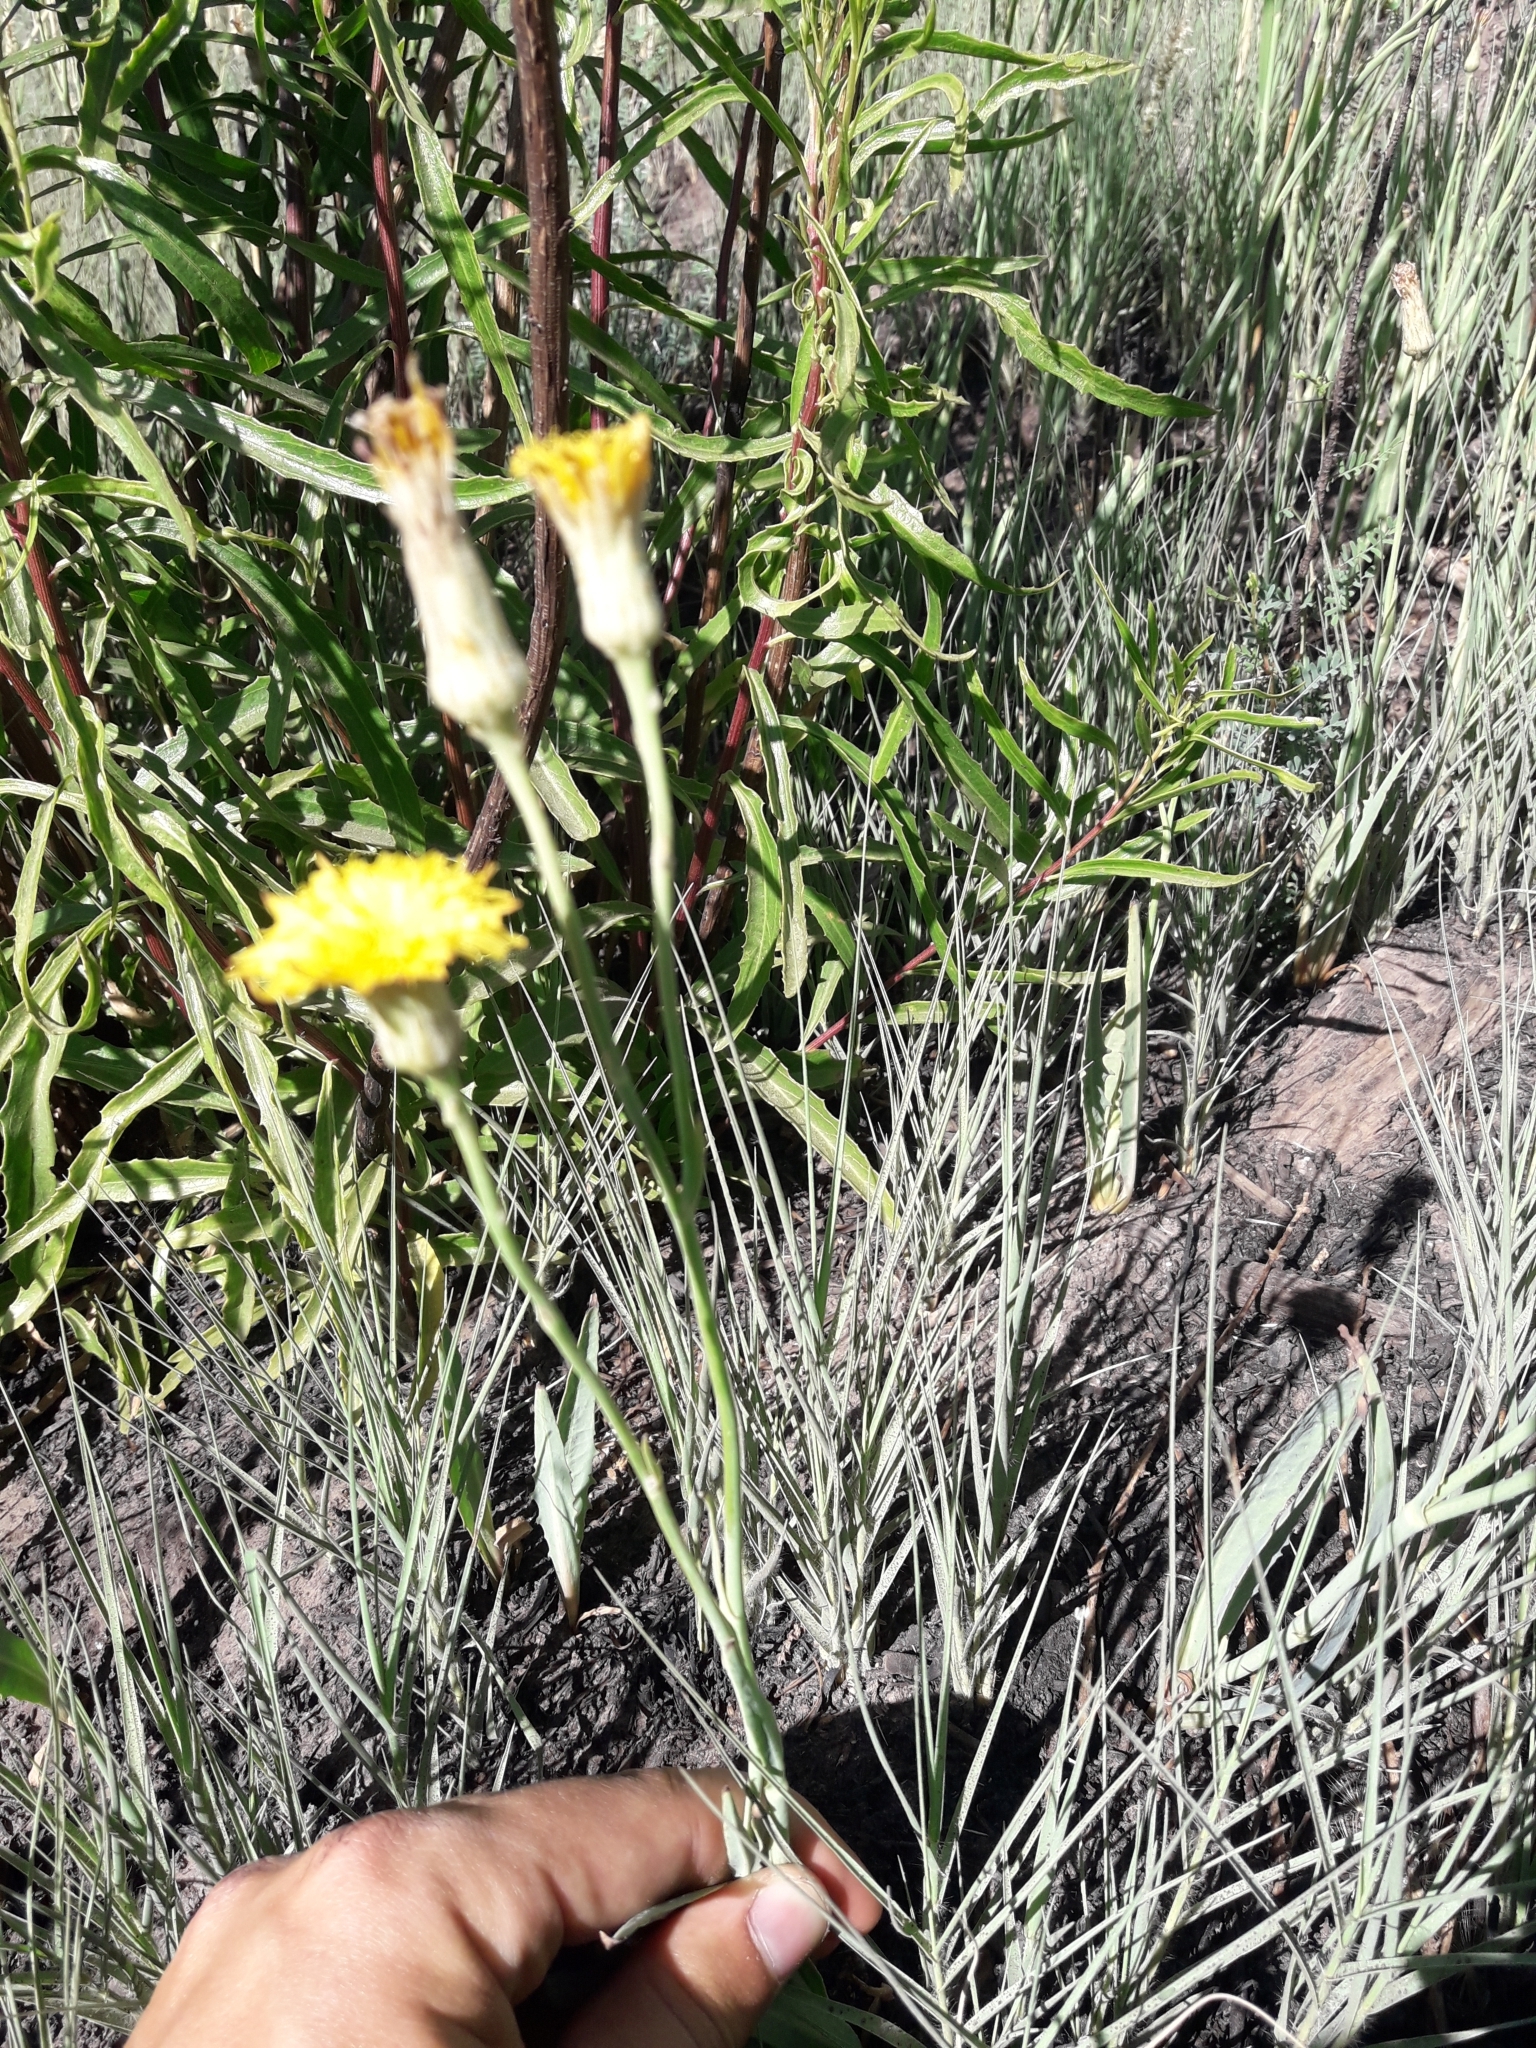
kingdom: Plantae
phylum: Tracheophyta
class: Magnoliopsida
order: Asterales
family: Asteraceae
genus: Hypochaeris
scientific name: Hypochaeris chondrilloides
